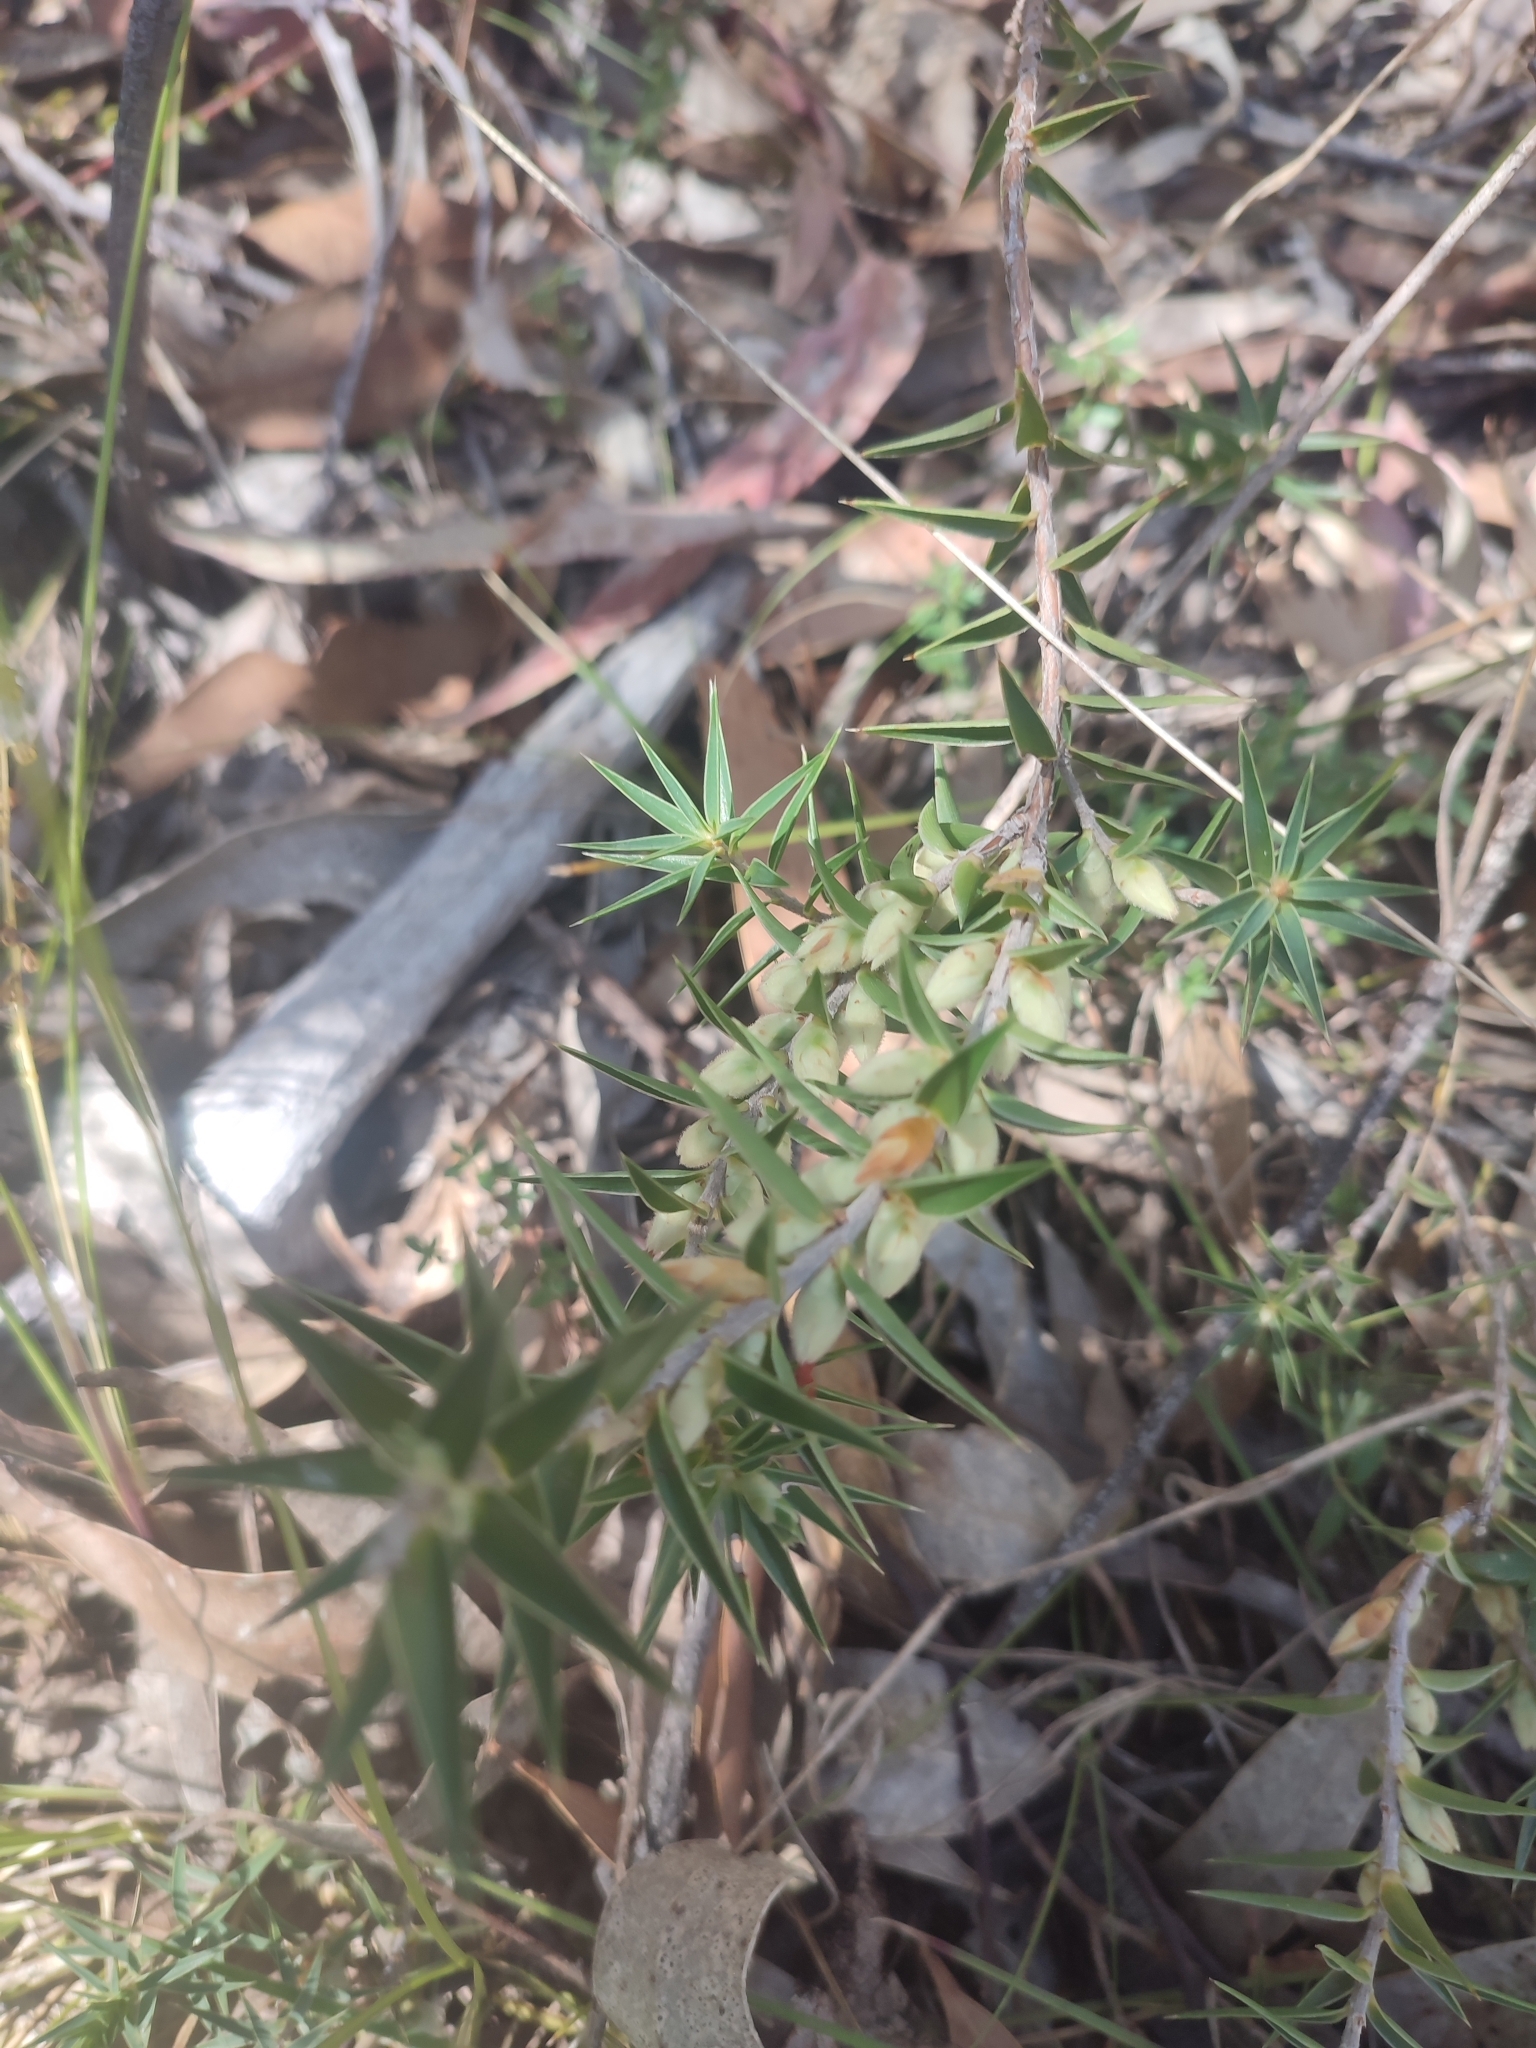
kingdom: Plantae
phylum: Tracheophyta
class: Magnoliopsida
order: Ericales
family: Ericaceae
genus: Melichrus
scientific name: Melichrus urceolatus
